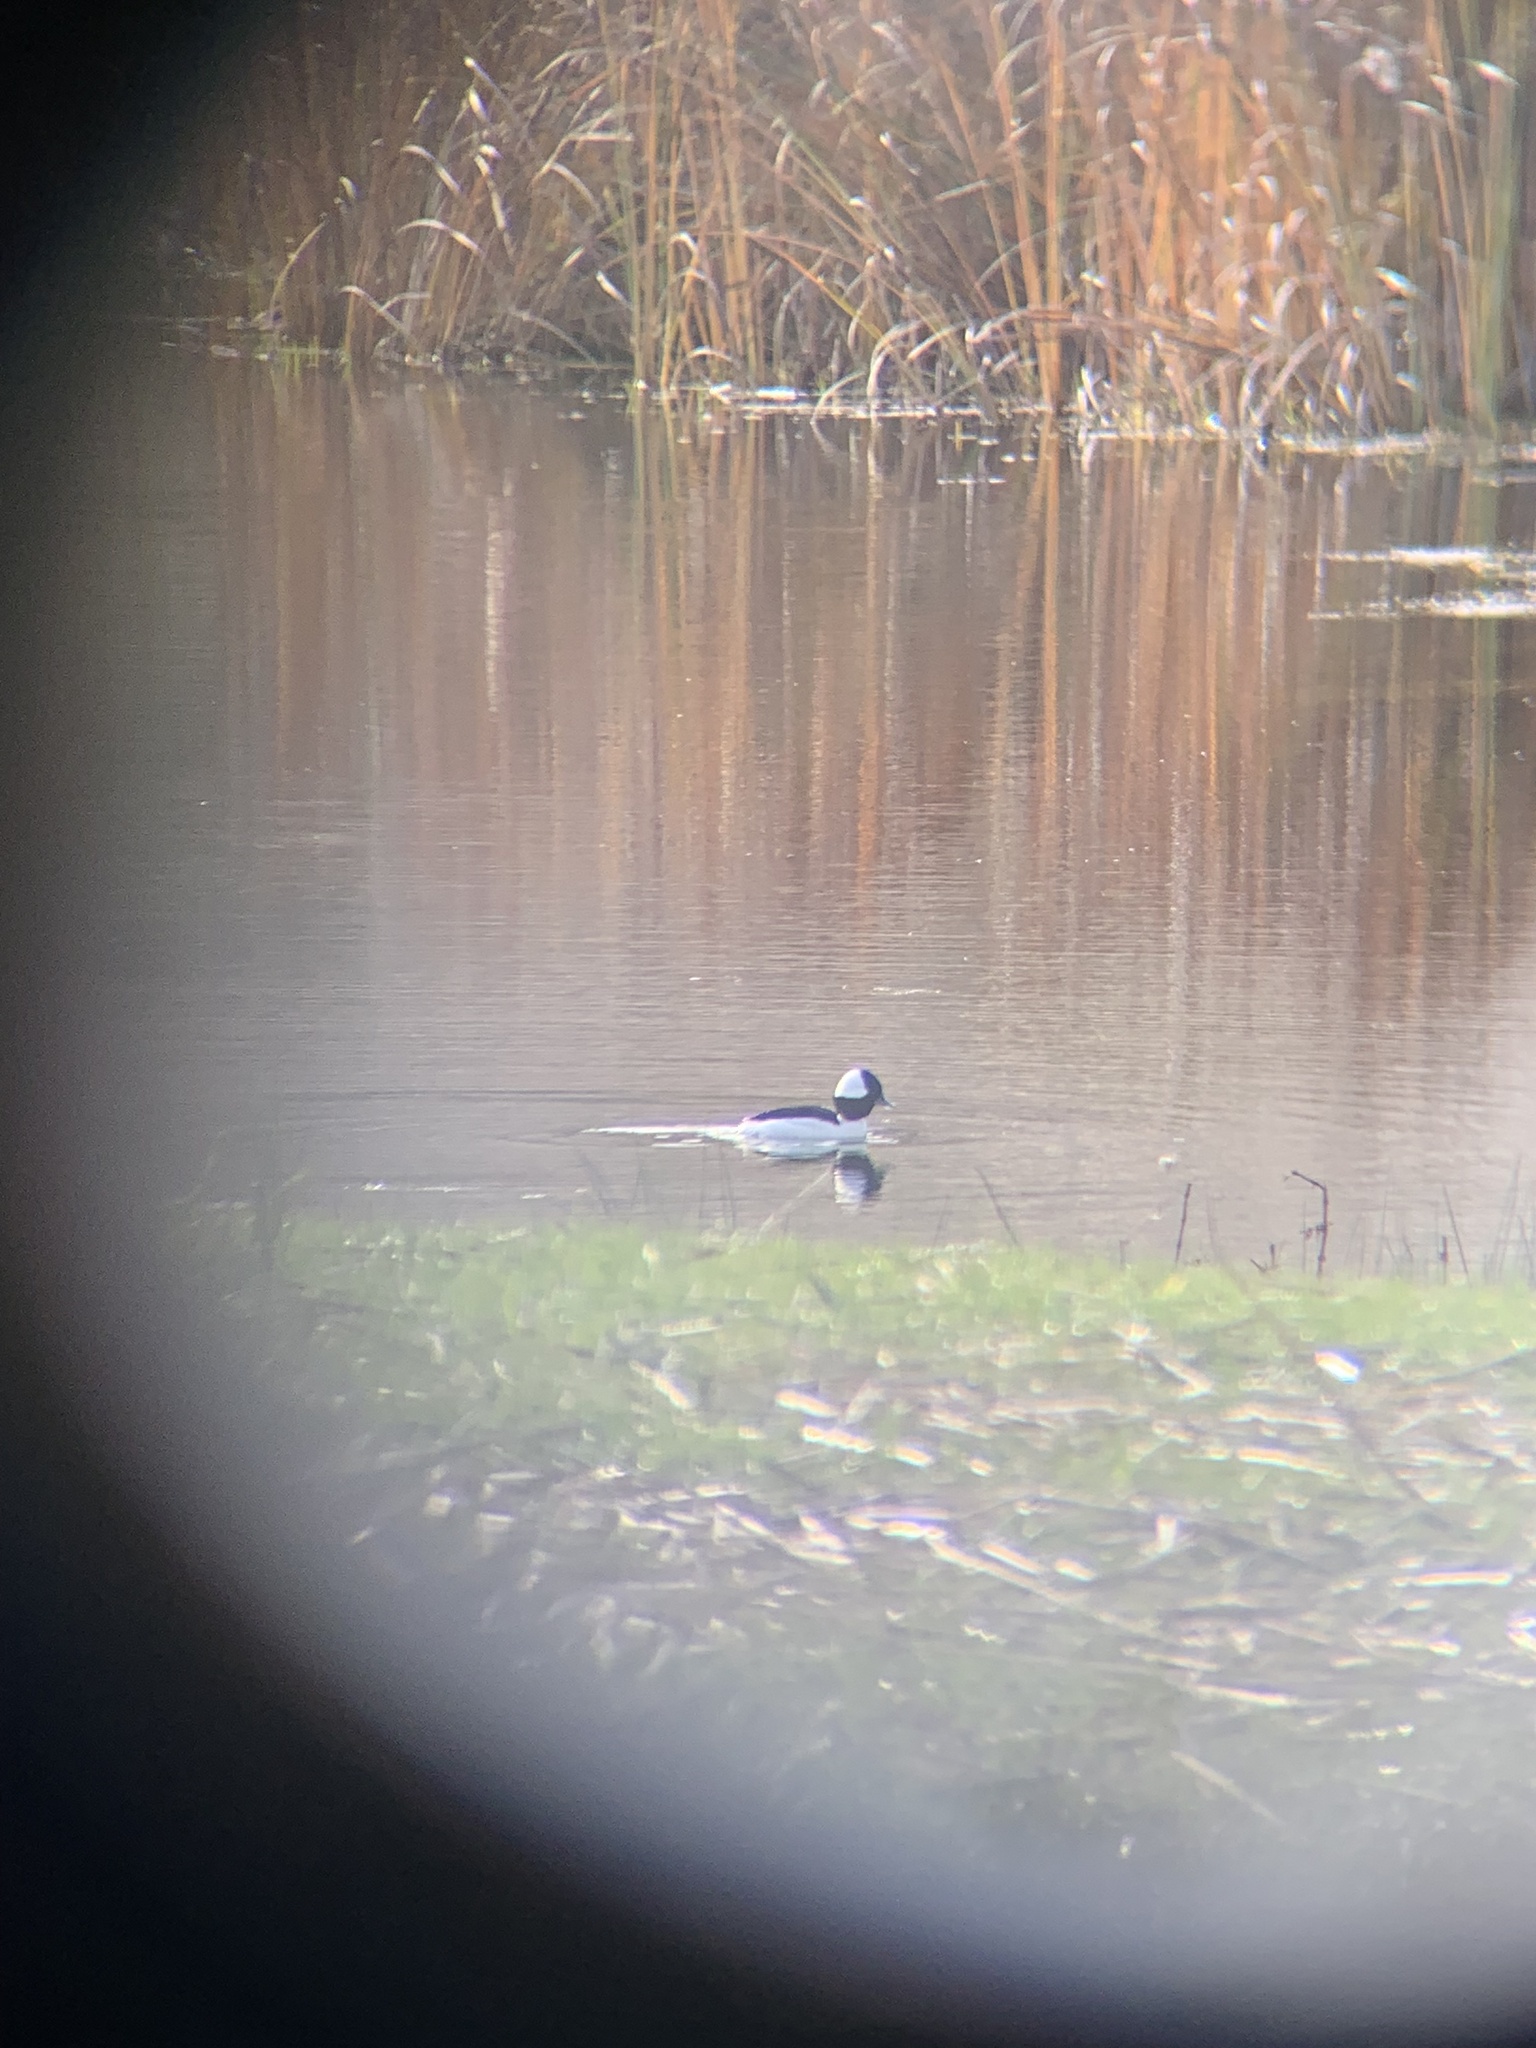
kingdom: Animalia
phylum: Chordata
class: Aves
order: Anseriformes
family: Anatidae
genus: Bucephala
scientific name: Bucephala albeola
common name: Bufflehead
